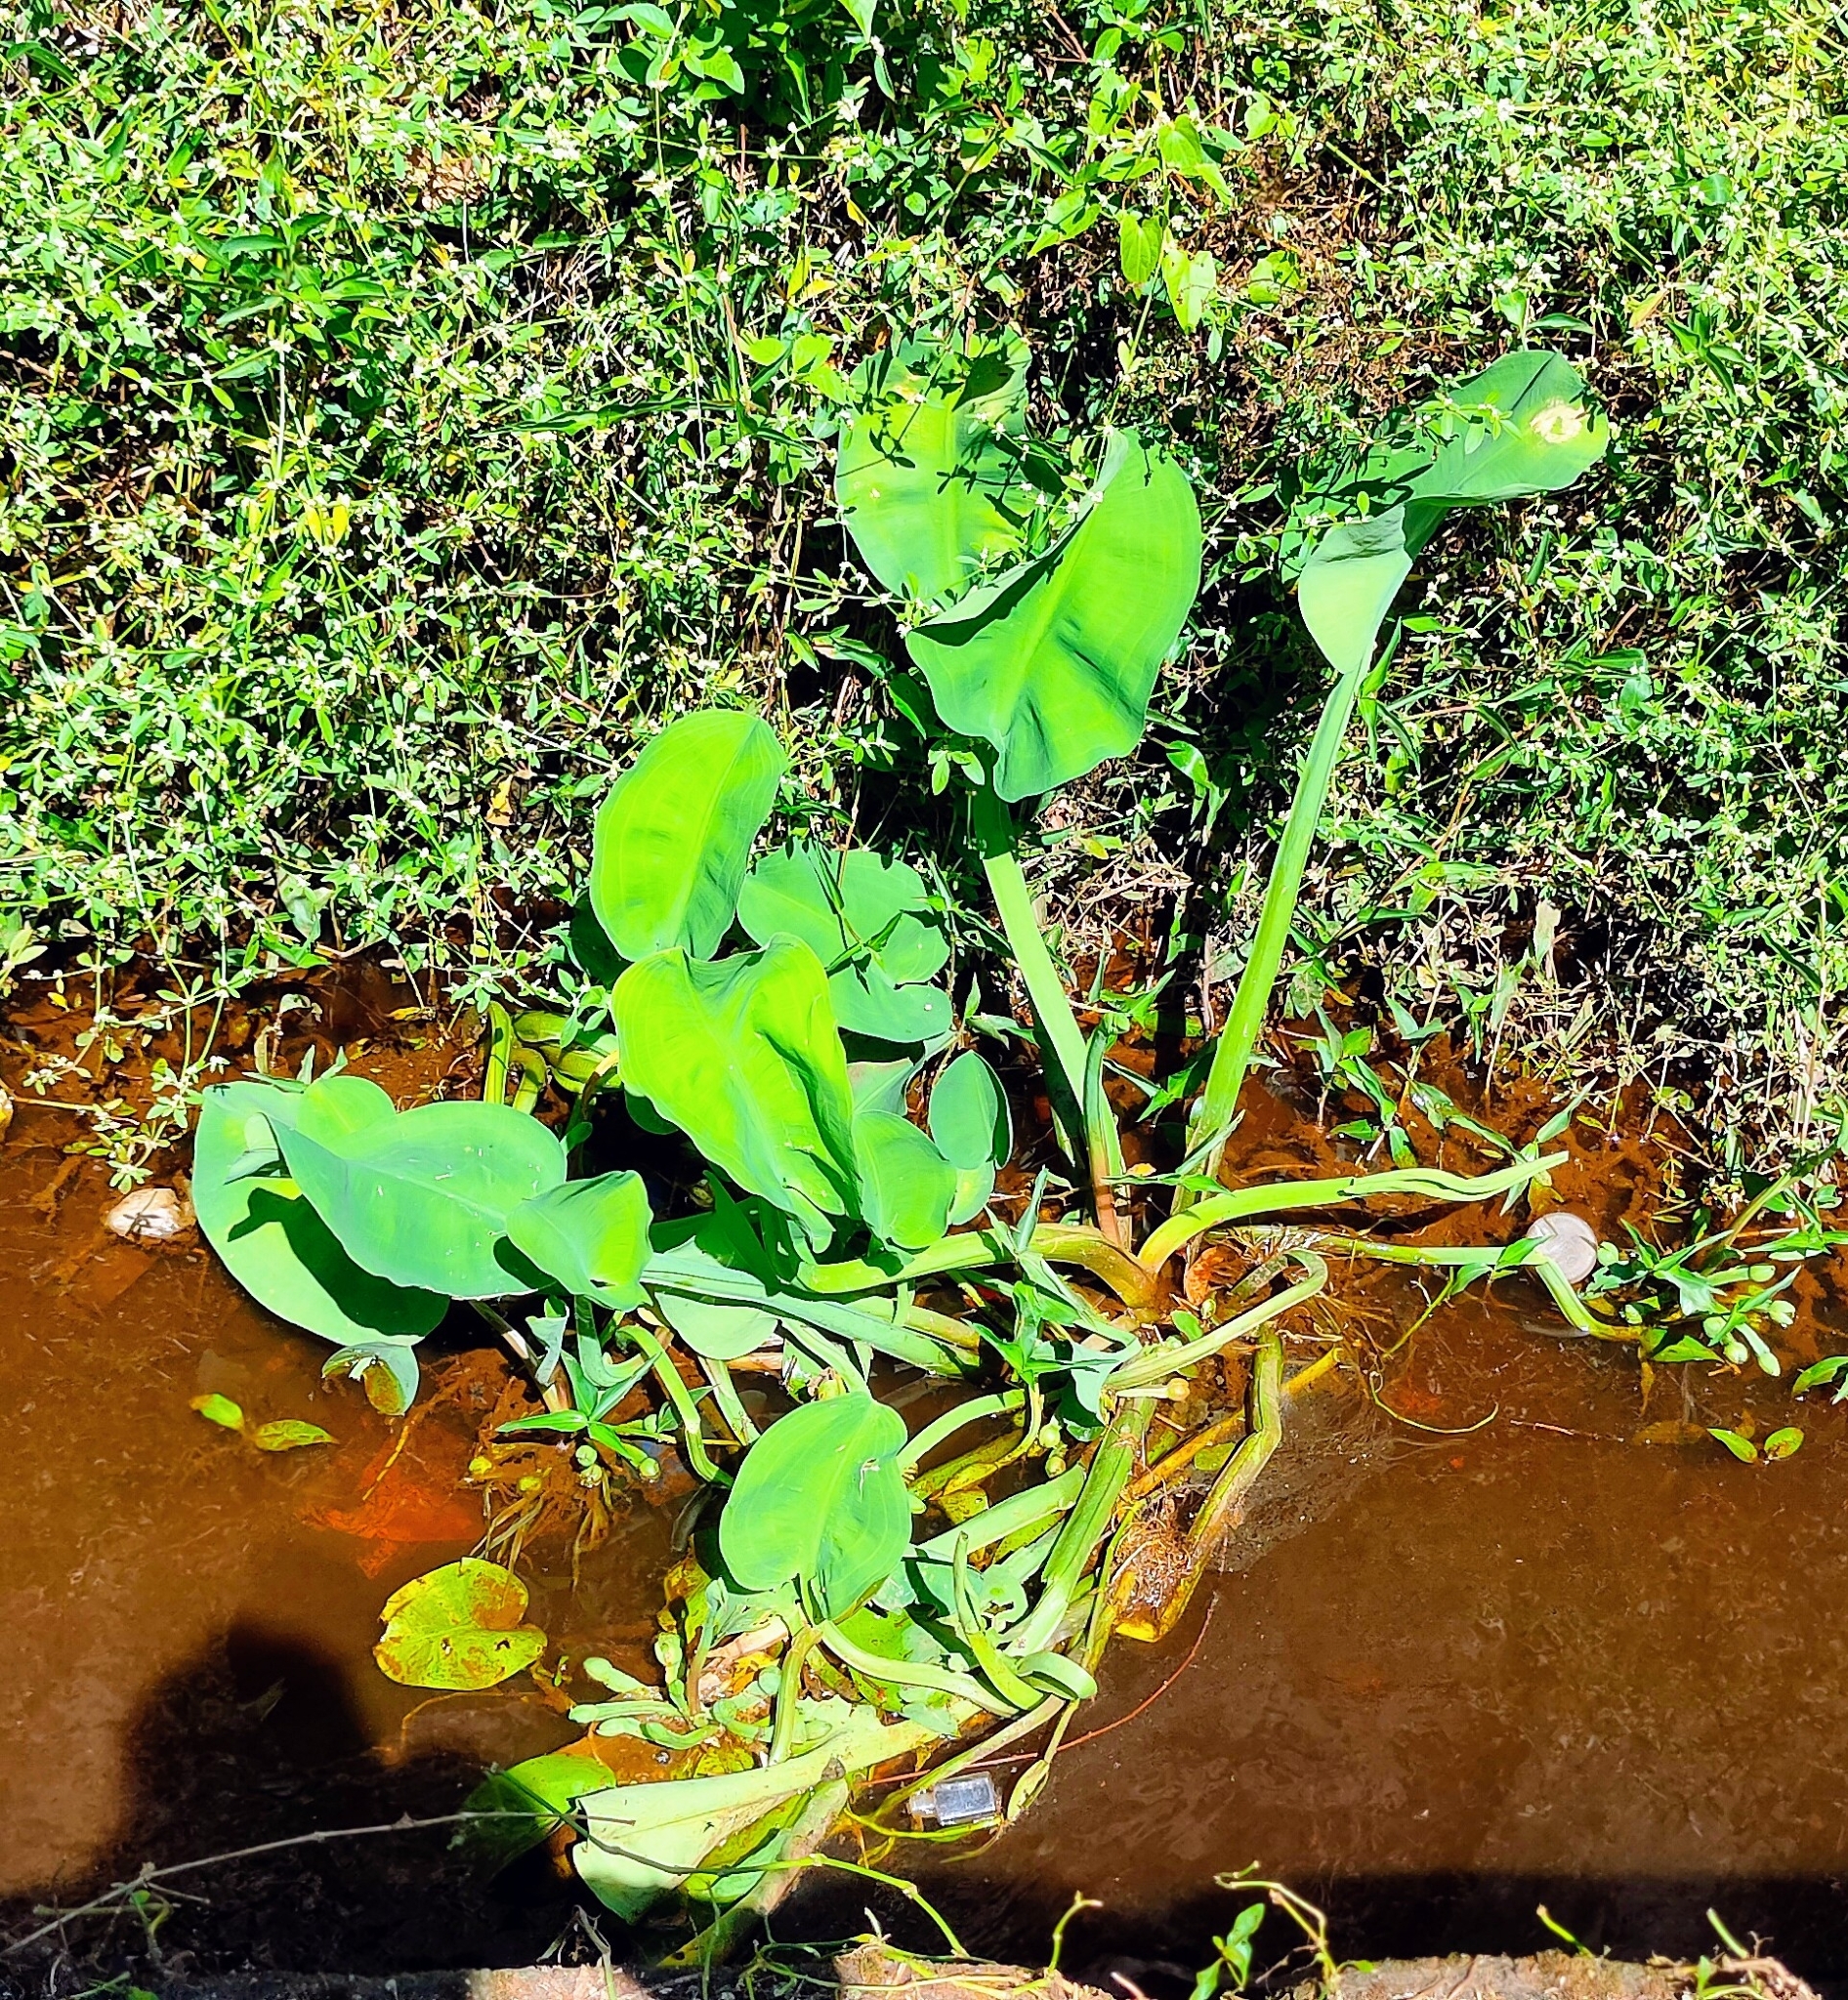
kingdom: Plantae
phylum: Tracheophyta
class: Liliopsida
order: Alismatales
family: Alismataceae
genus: Limnocharis
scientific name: Limnocharis flava
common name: Sawah-flower-rush
